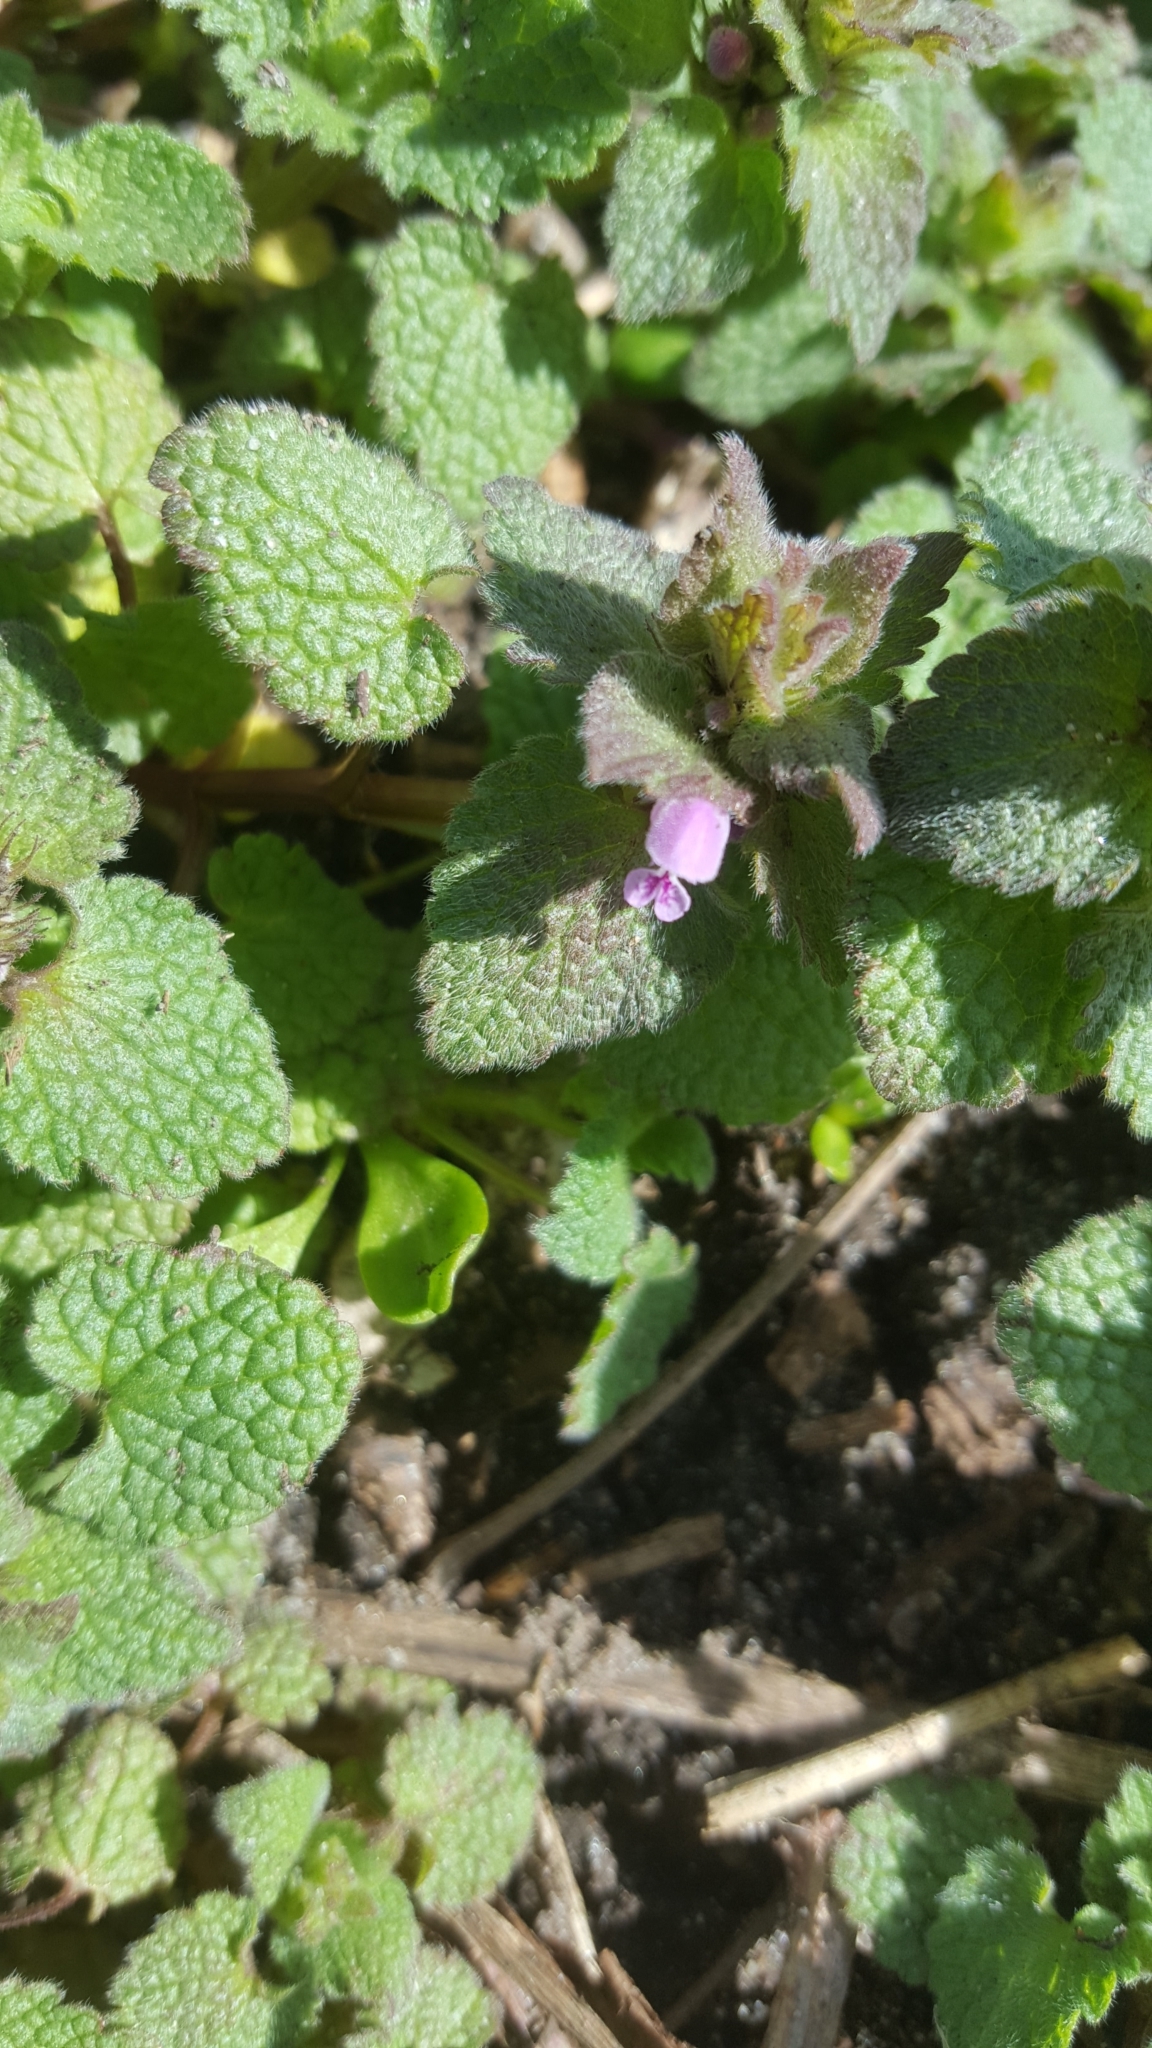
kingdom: Plantae
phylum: Tracheophyta
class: Magnoliopsida
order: Lamiales
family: Lamiaceae
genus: Lamium
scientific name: Lamium purpureum
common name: Red dead-nettle
